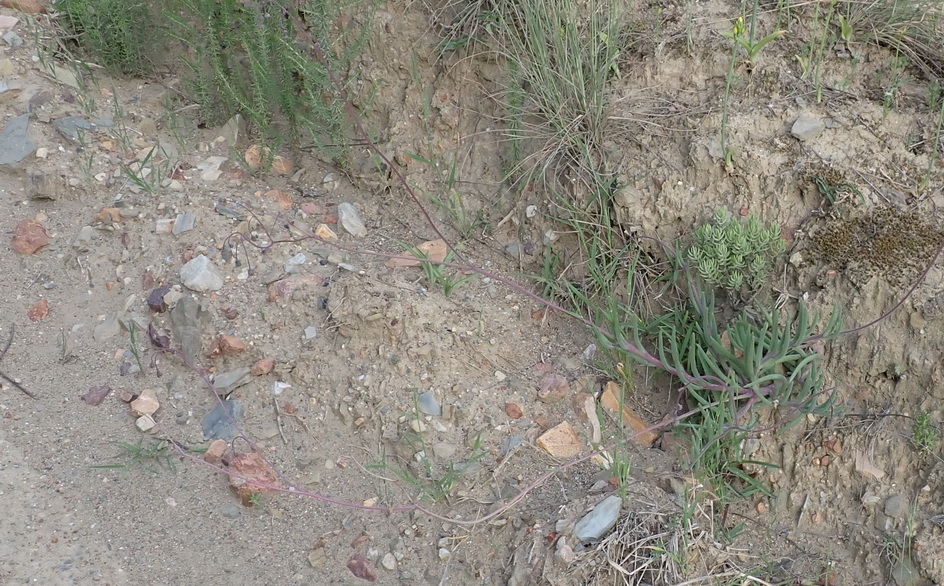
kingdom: Plantae
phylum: Tracheophyta
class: Magnoliopsida
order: Asterales
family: Asteraceae
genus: Crassothonna
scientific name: Crassothonna alba
